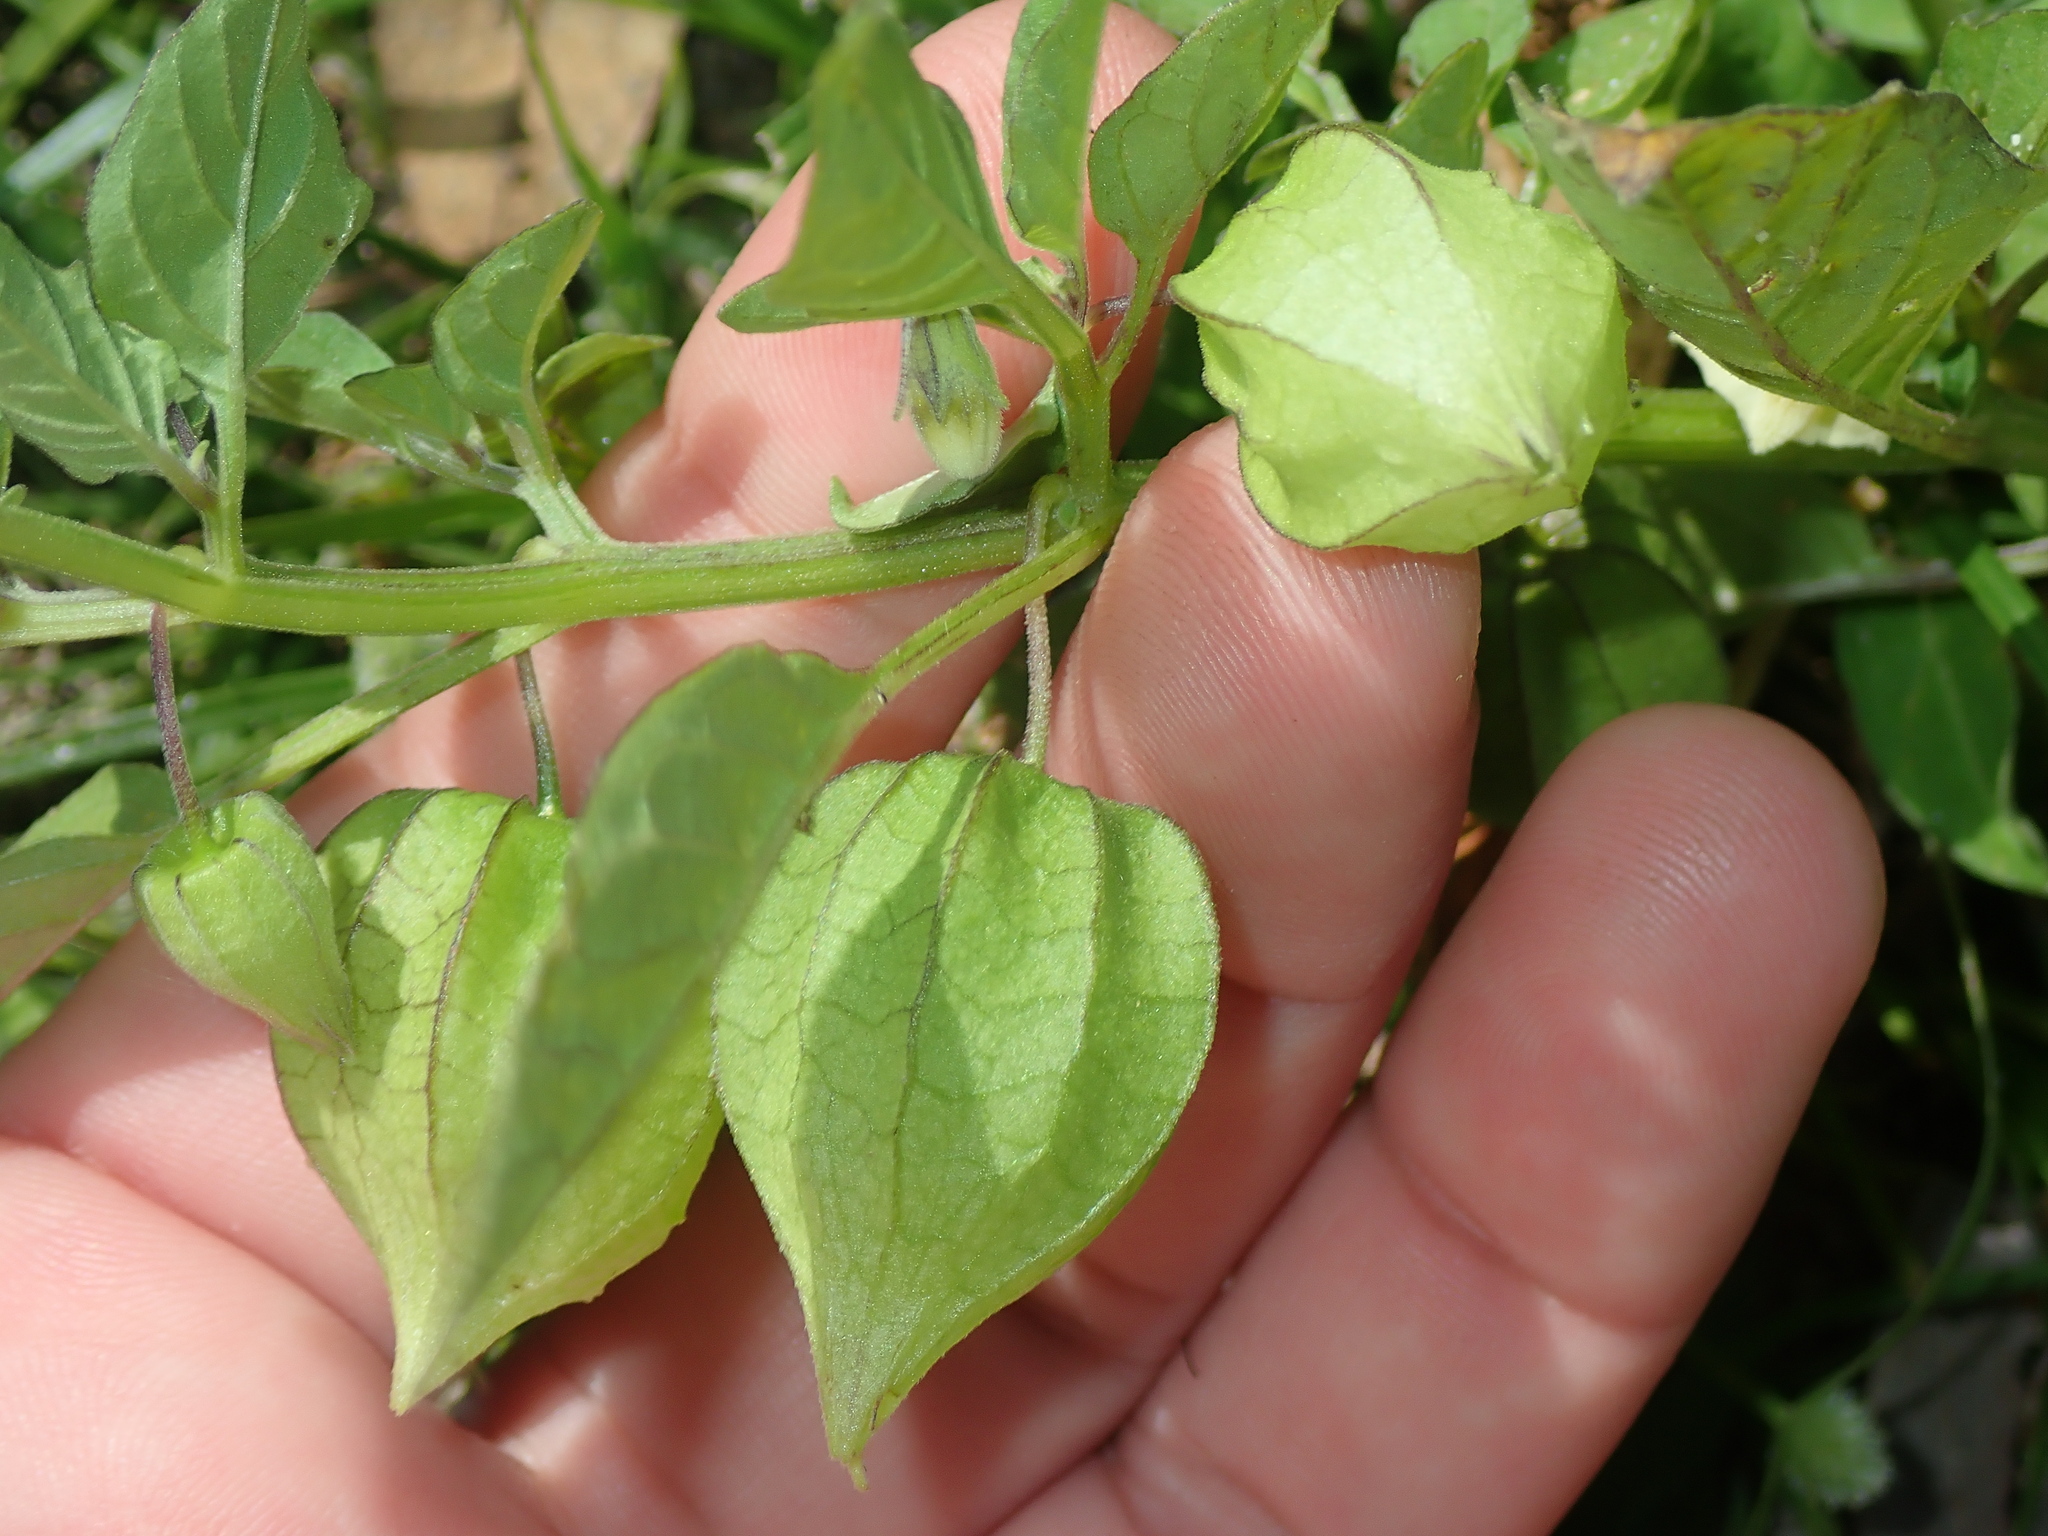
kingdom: Plantae
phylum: Tracheophyta
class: Magnoliopsida
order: Solanales
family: Solanaceae
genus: Physalis
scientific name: Physalis angulata
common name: Angular winter-cherry
